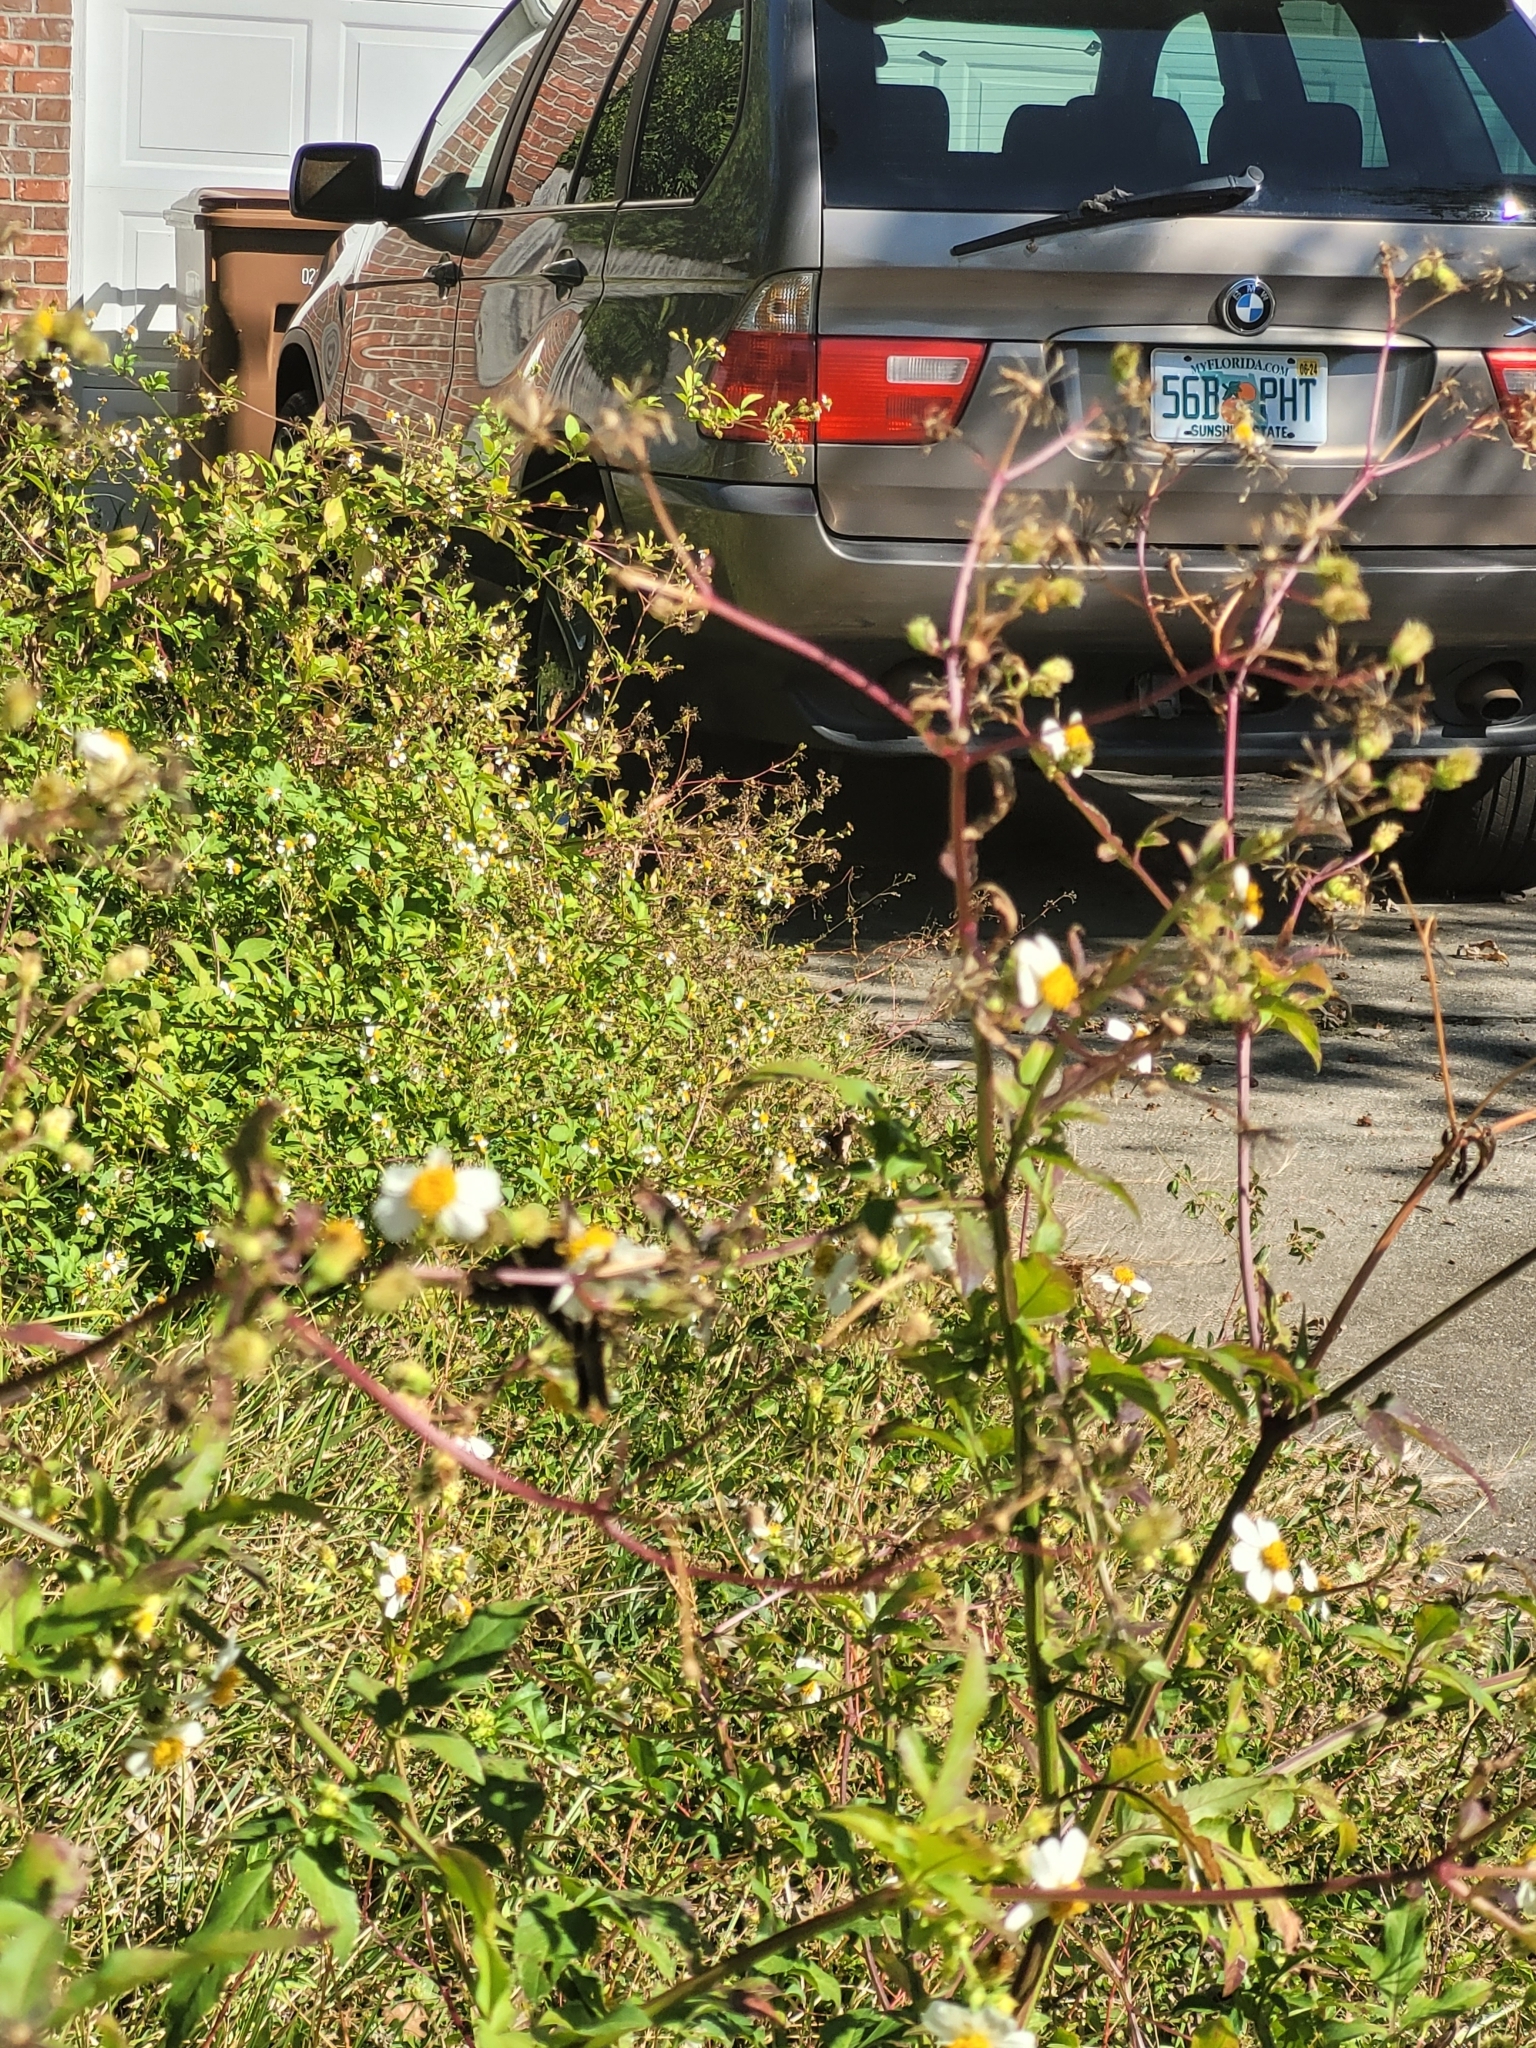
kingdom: Animalia
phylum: Arthropoda
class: Insecta
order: Lepidoptera
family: Hesperiidae
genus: Urbanus
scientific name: Urbanus proteus
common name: Long-tailed skipper
